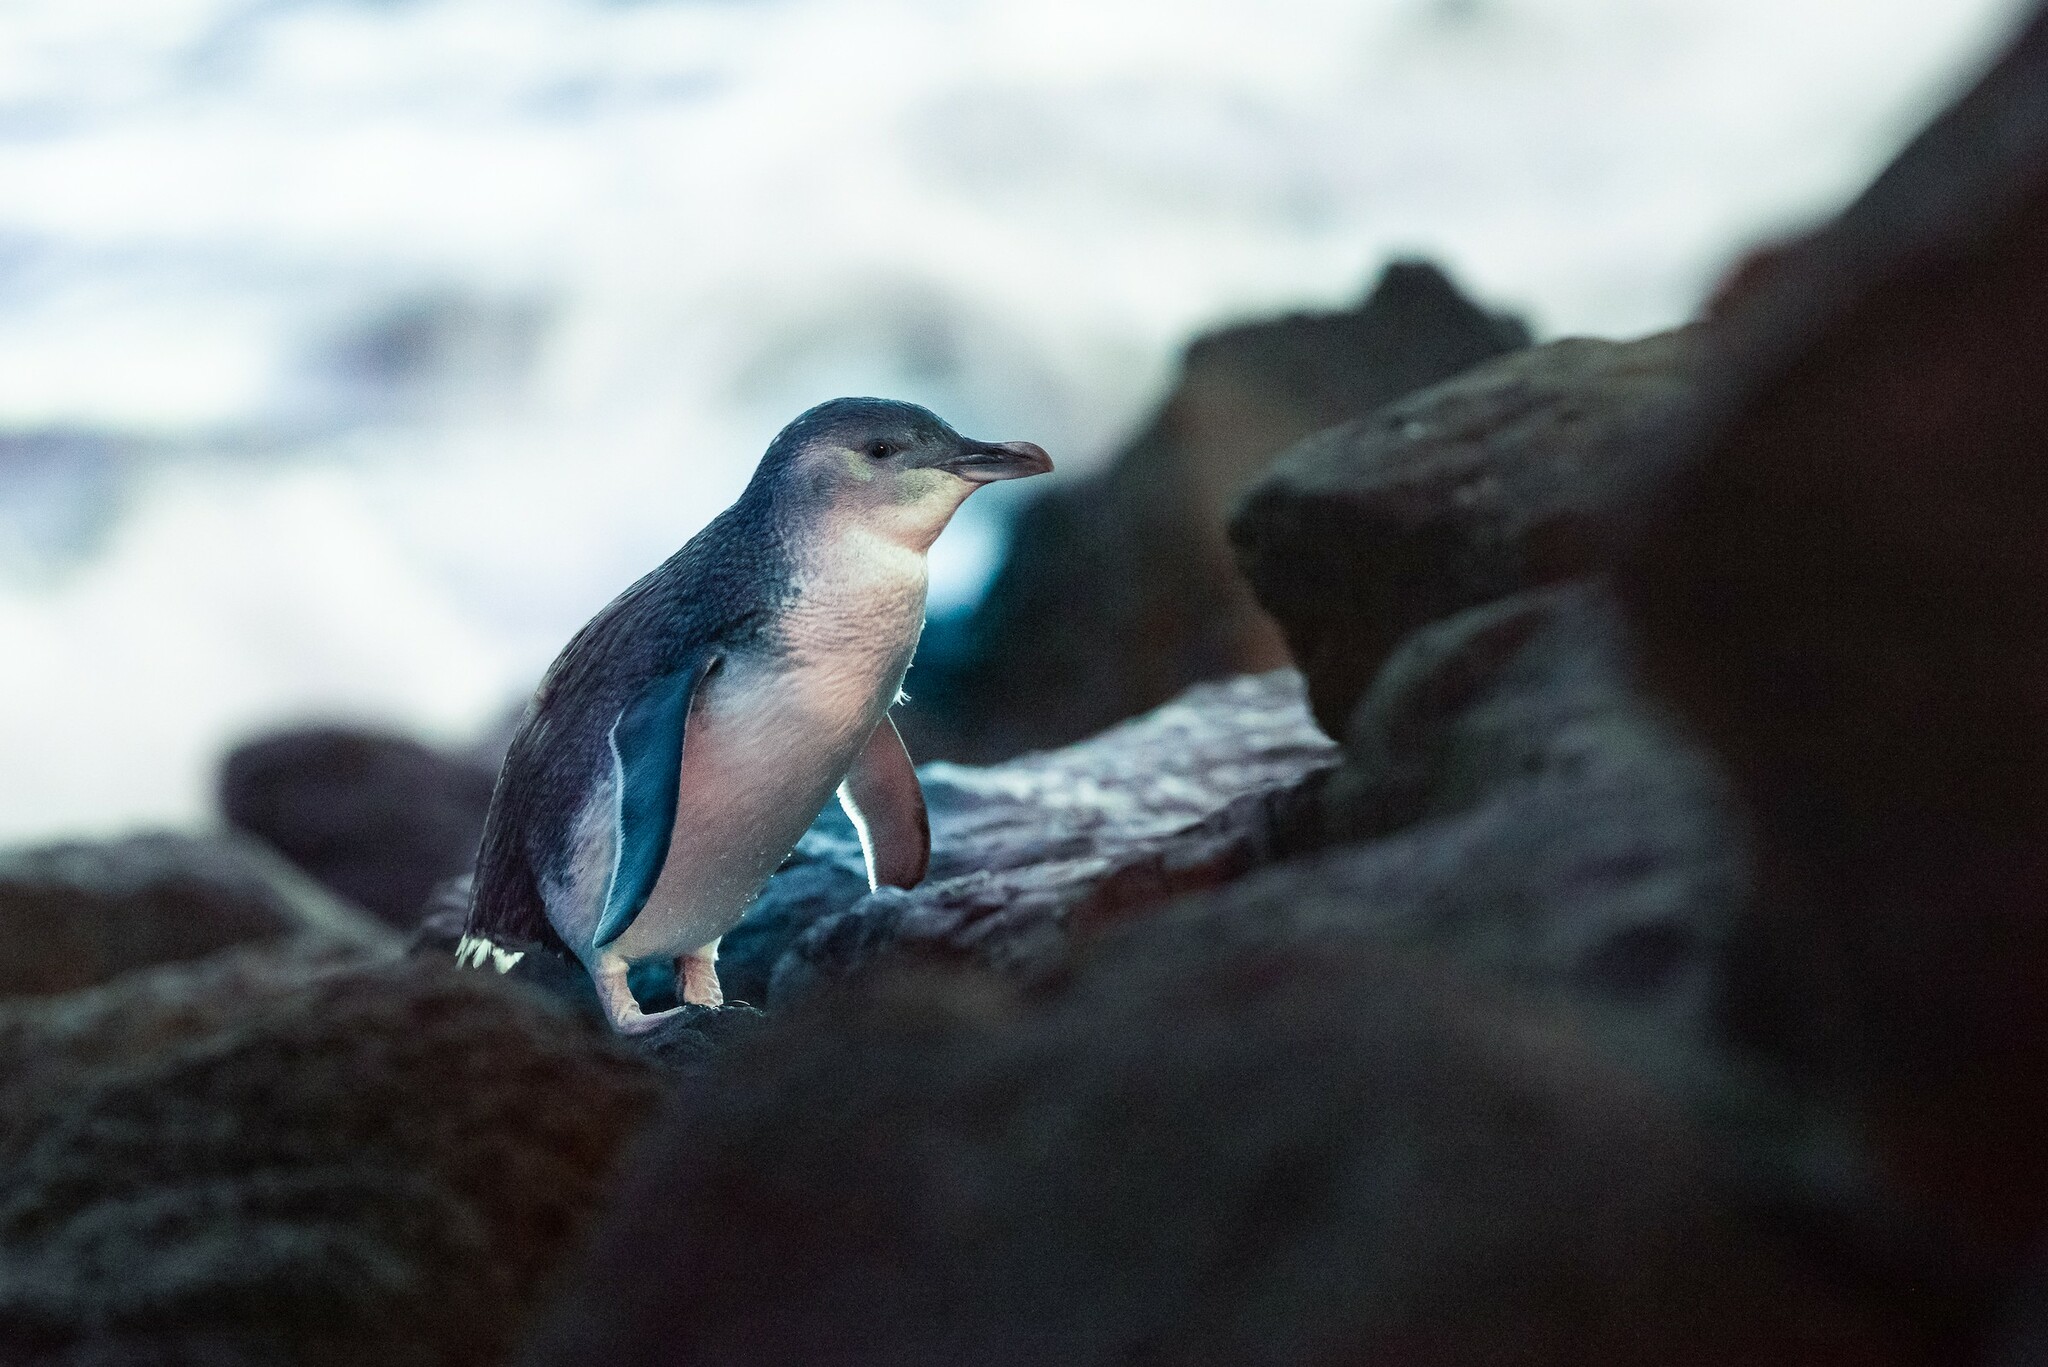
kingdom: Animalia
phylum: Chordata
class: Aves
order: Sphenisciformes
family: Spheniscidae
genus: Eudyptula
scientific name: Eudyptula minor
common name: Little penguin
